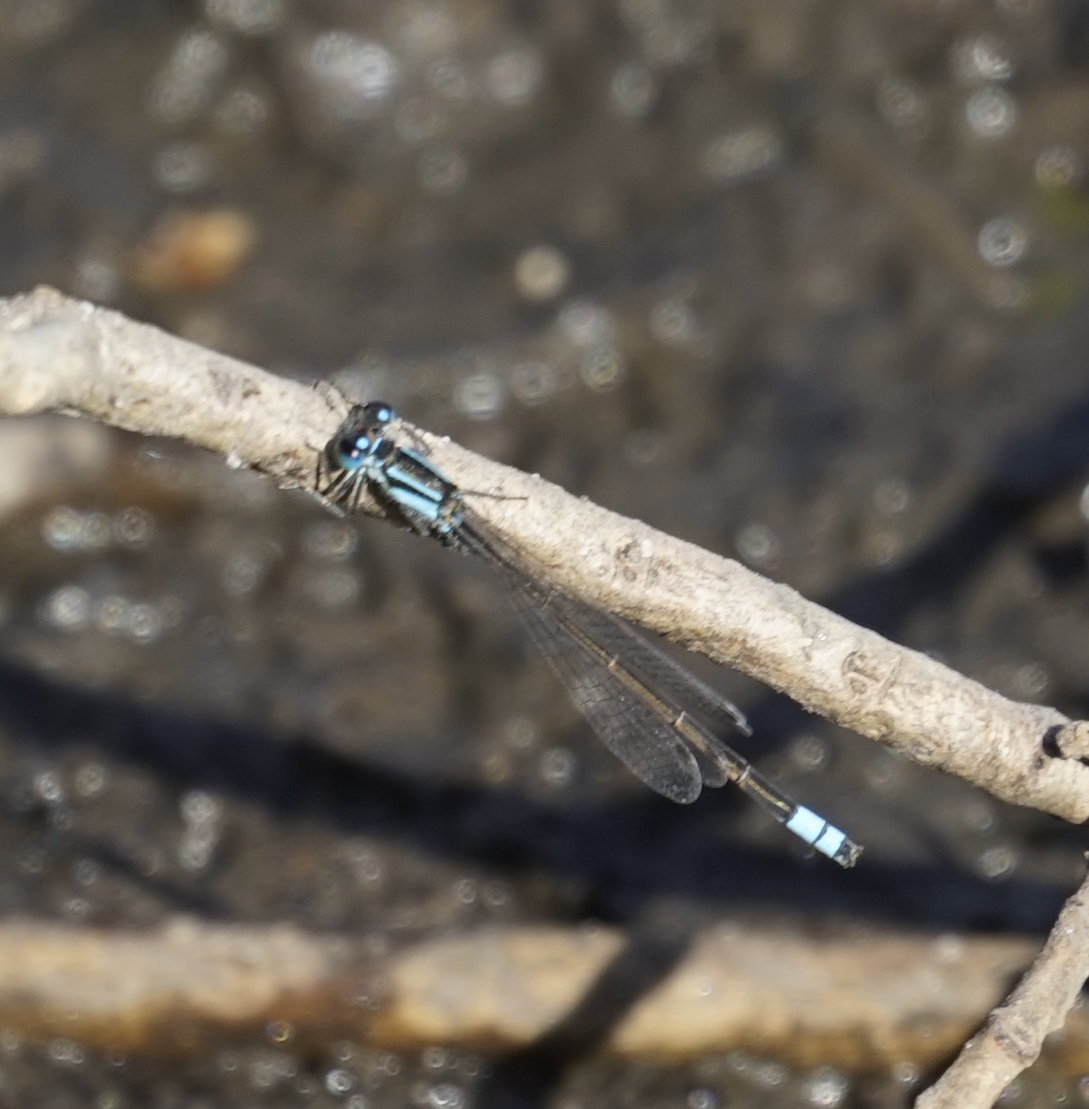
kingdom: Animalia
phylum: Arthropoda
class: Insecta
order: Odonata
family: Coenagrionidae
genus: Ischnura
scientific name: Ischnura heterosticta
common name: Common bluetail
